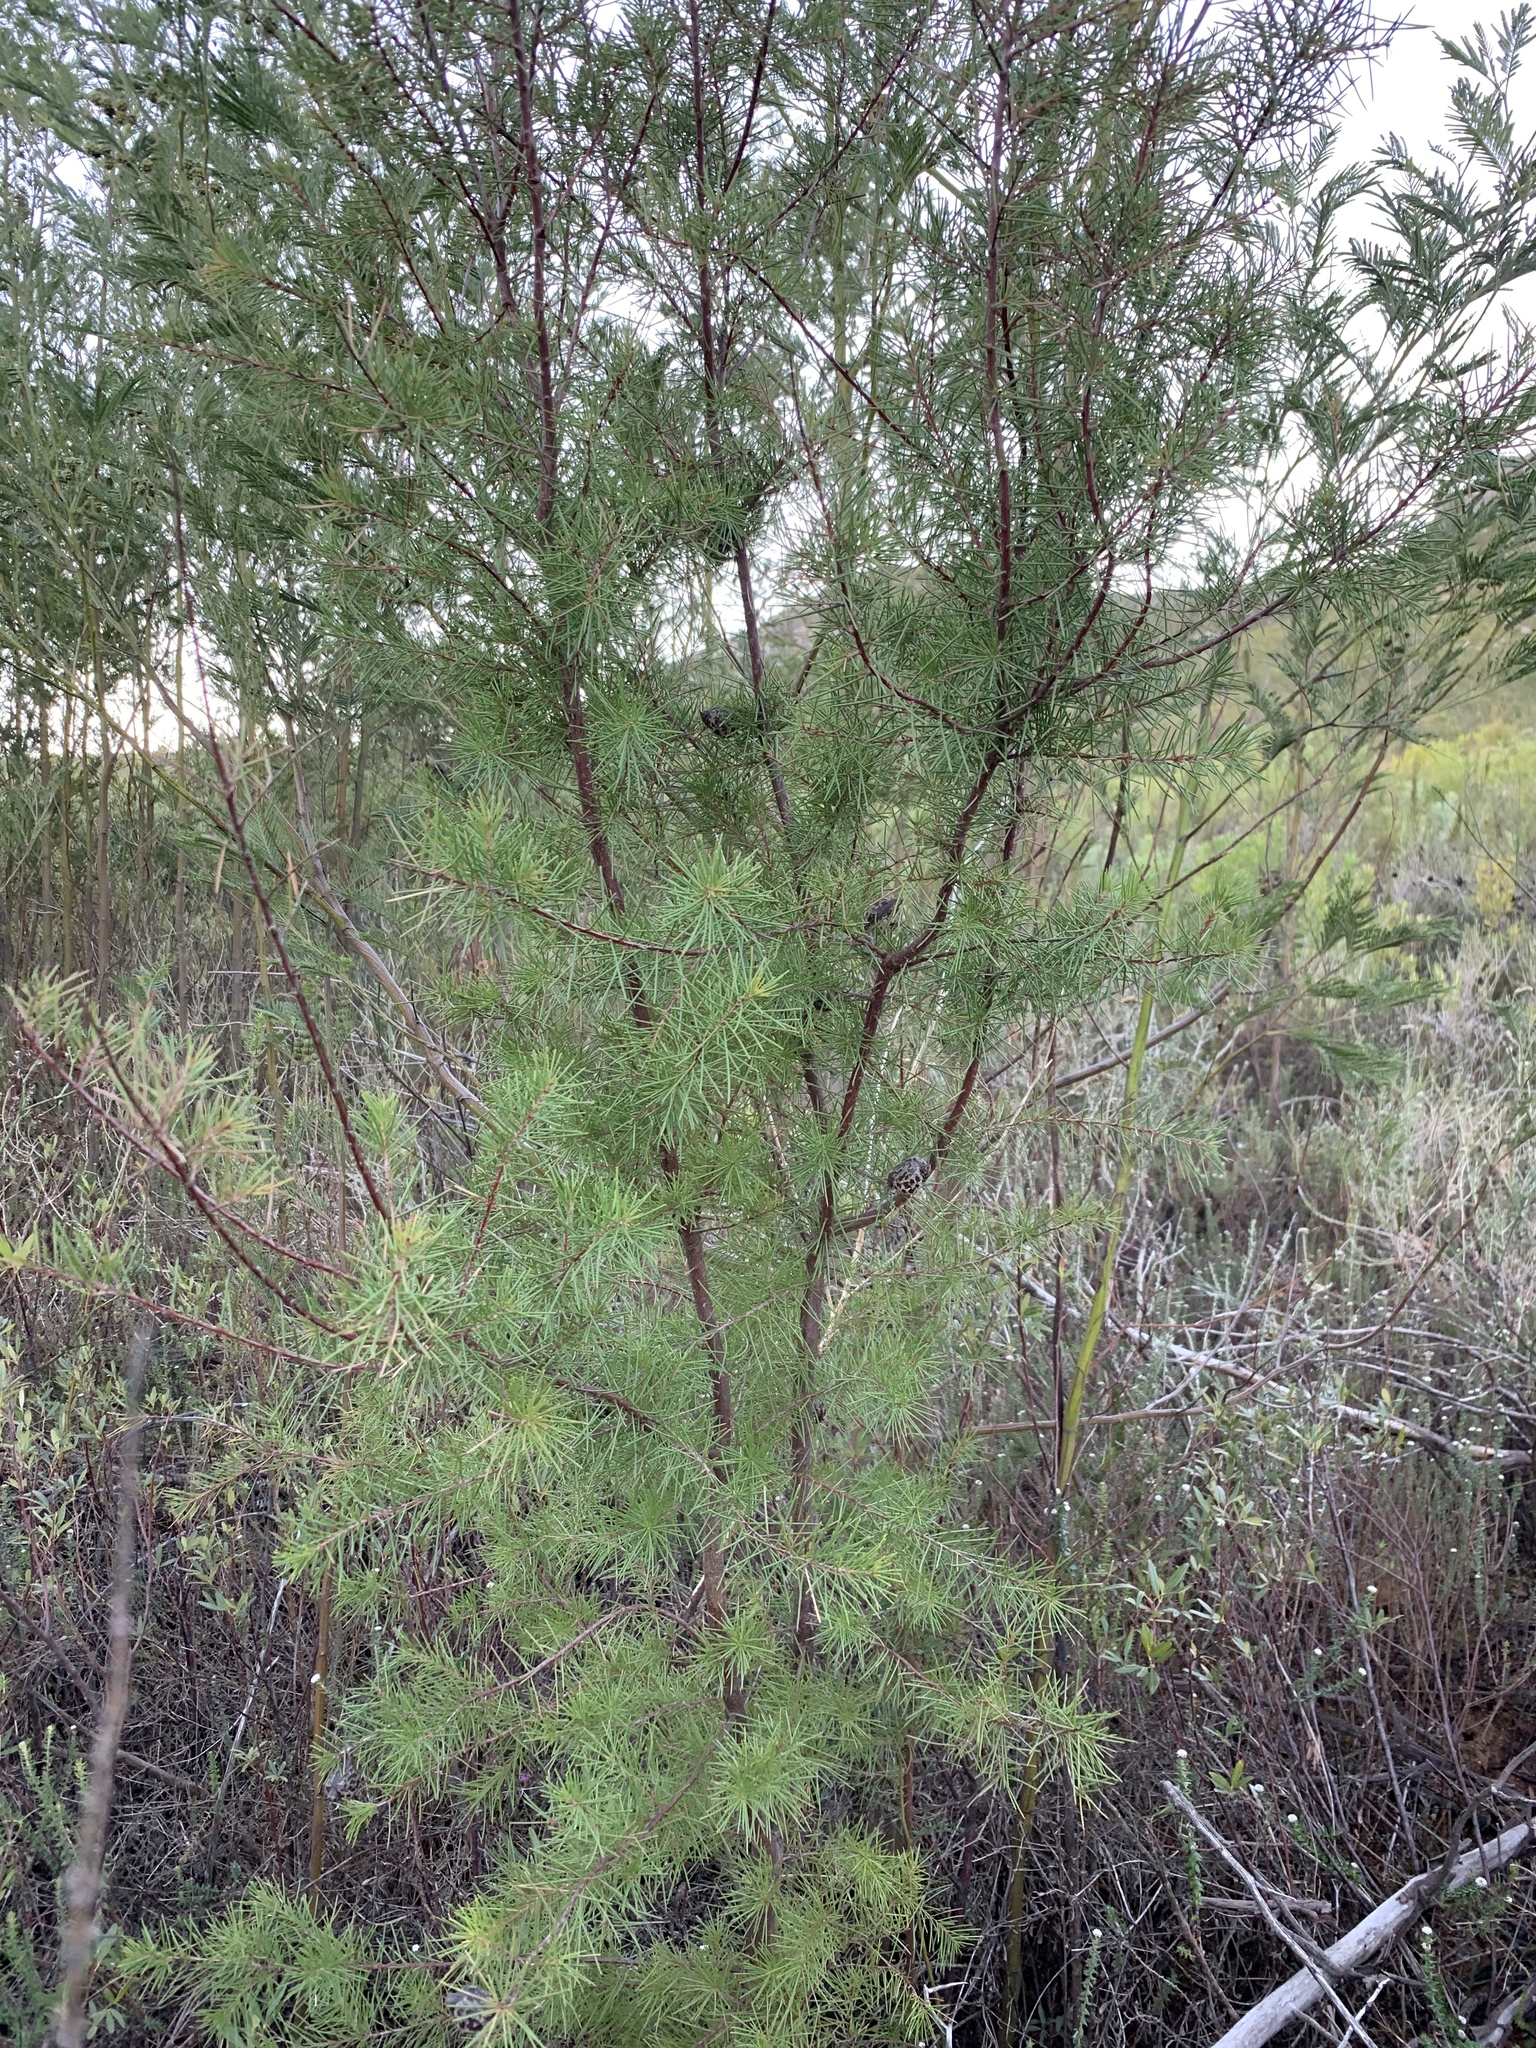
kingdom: Plantae
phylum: Tracheophyta
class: Magnoliopsida
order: Proteales
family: Proteaceae
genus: Hakea
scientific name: Hakea sericea
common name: Needle bush
